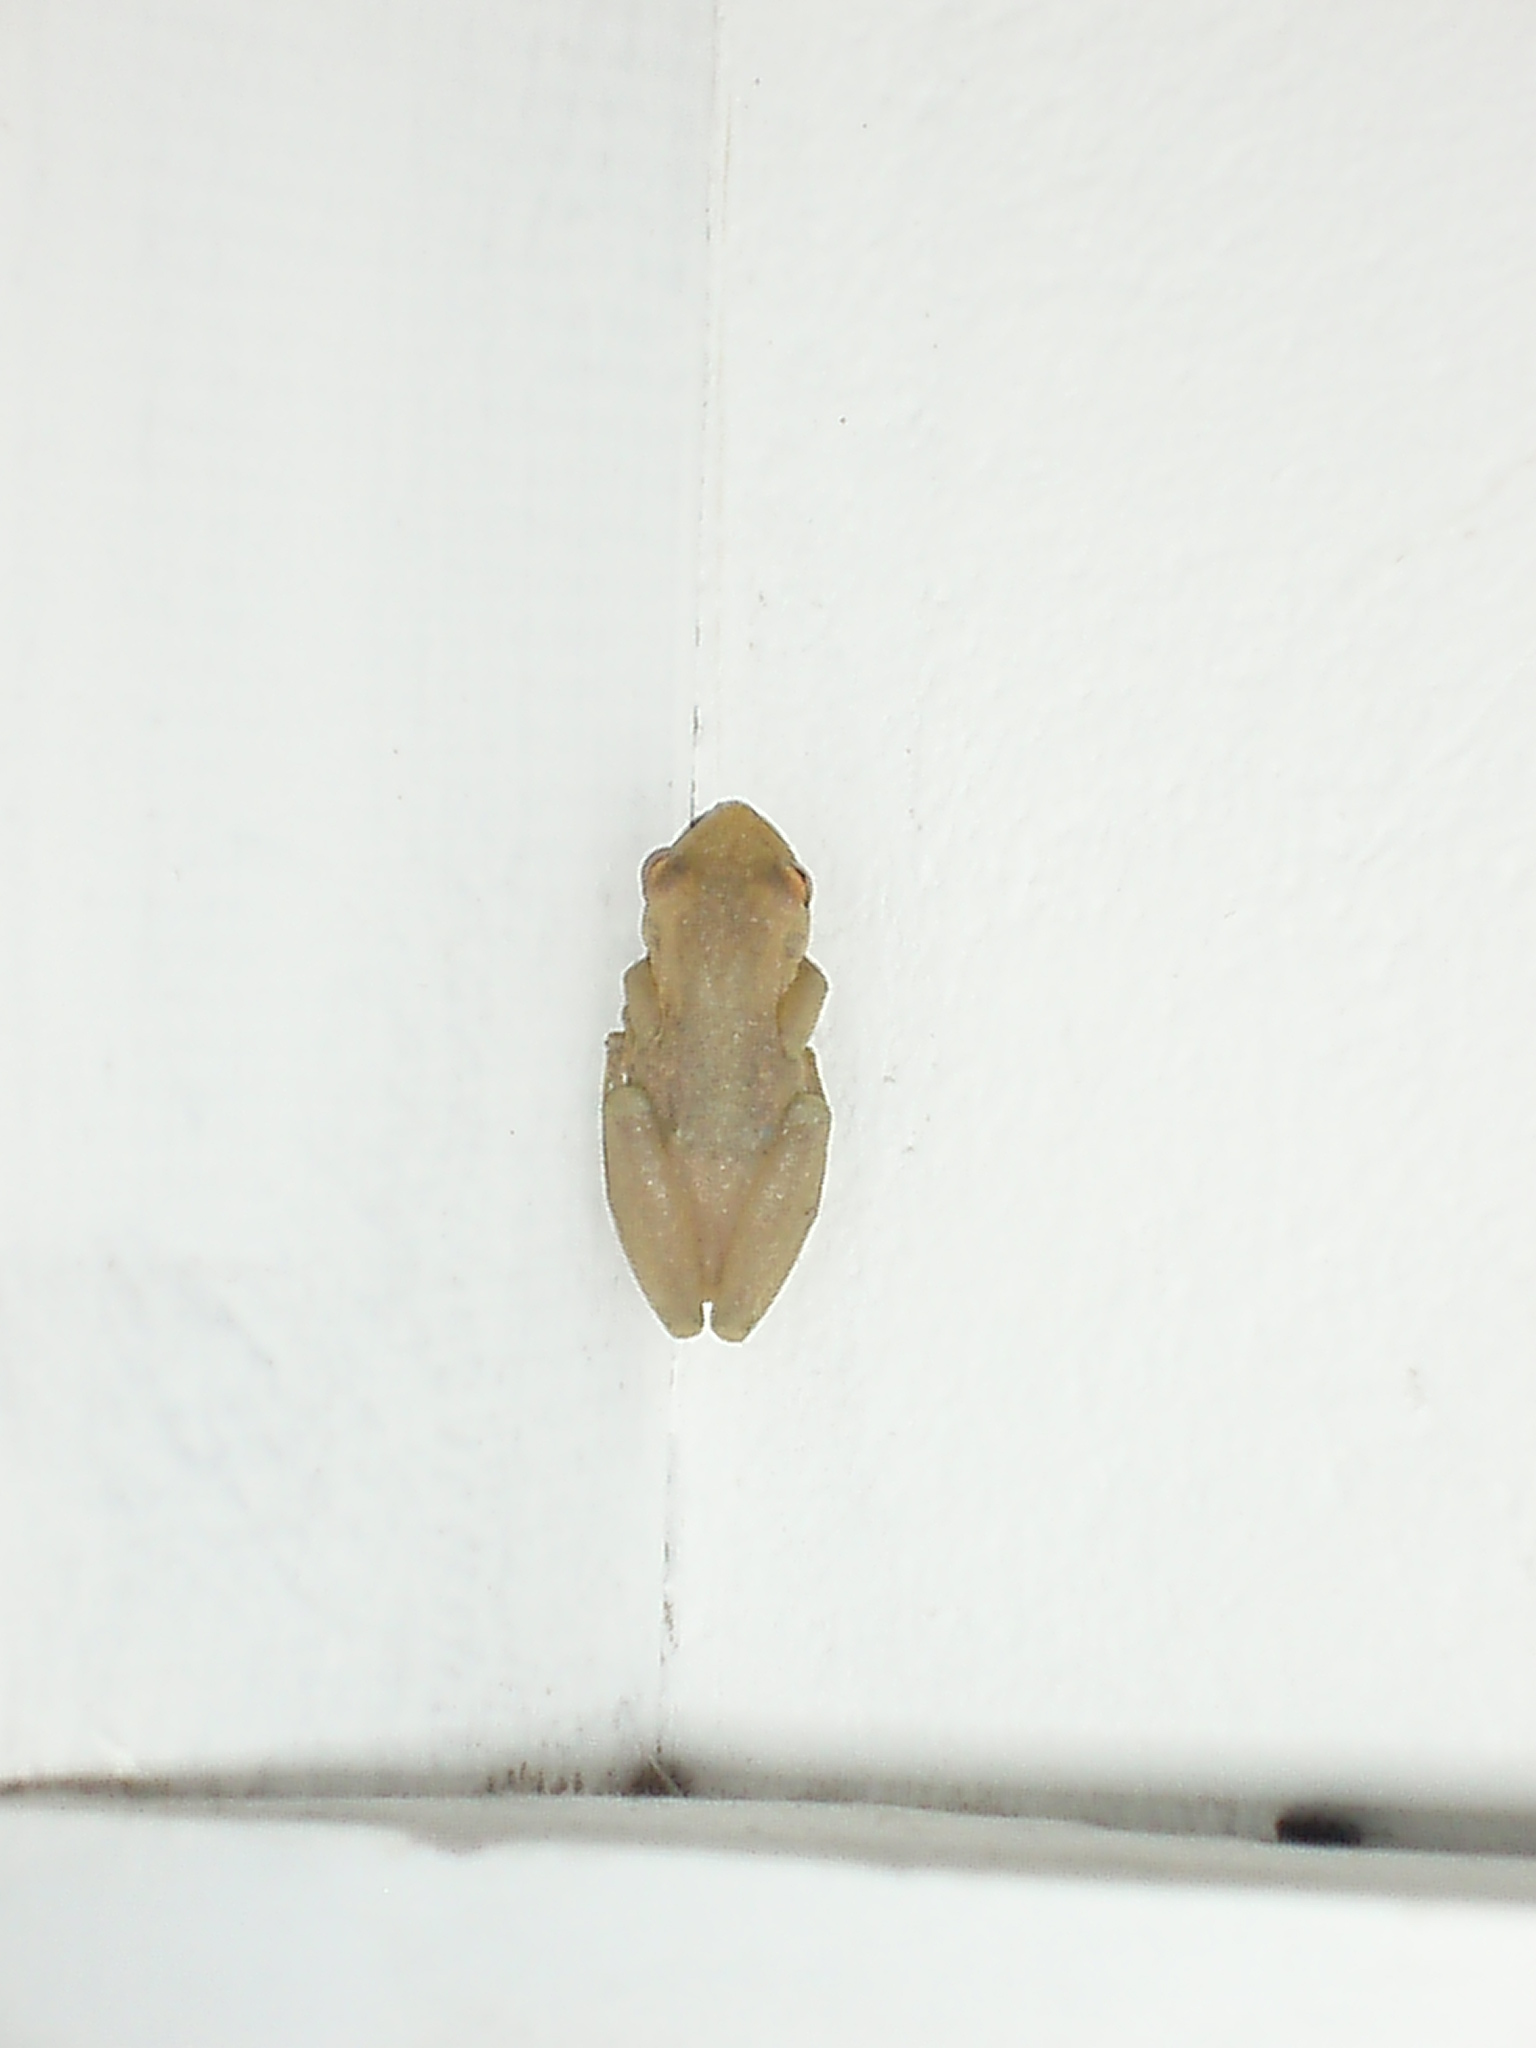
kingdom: Animalia
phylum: Chordata
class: Amphibia
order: Anura
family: Hylidae
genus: Scinax
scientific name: Scinax elaeochroa
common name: Sipurio snouted treefrog
